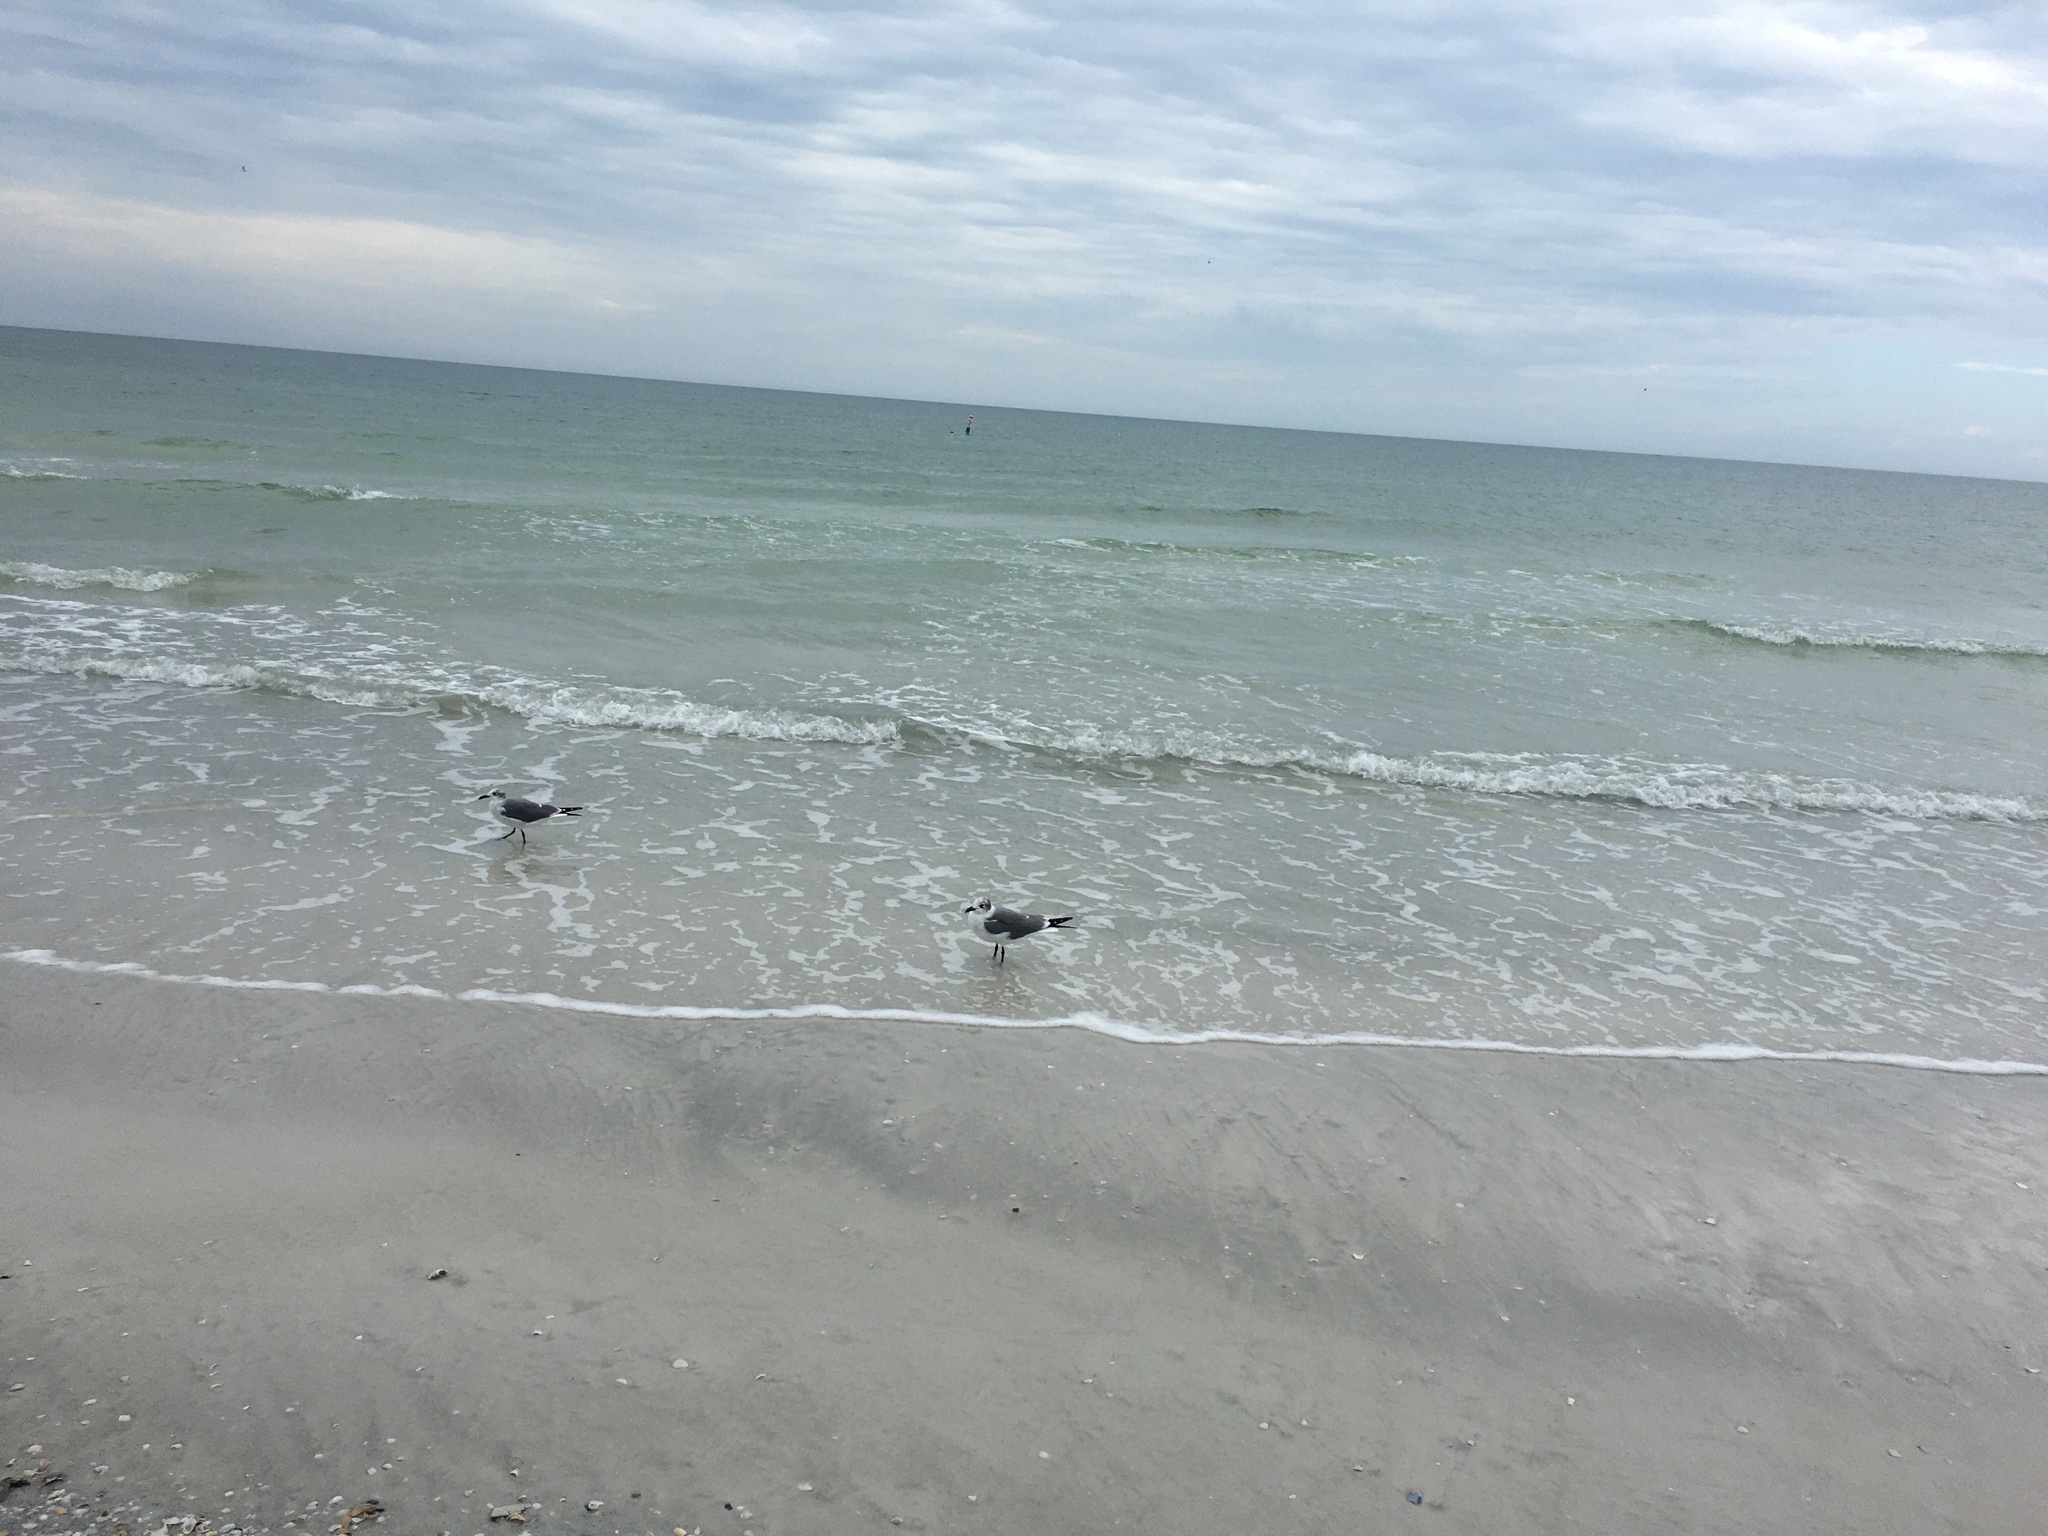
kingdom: Animalia
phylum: Chordata
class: Aves
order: Charadriiformes
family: Laridae
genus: Leucophaeus
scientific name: Leucophaeus atricilla
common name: Laughing gull
